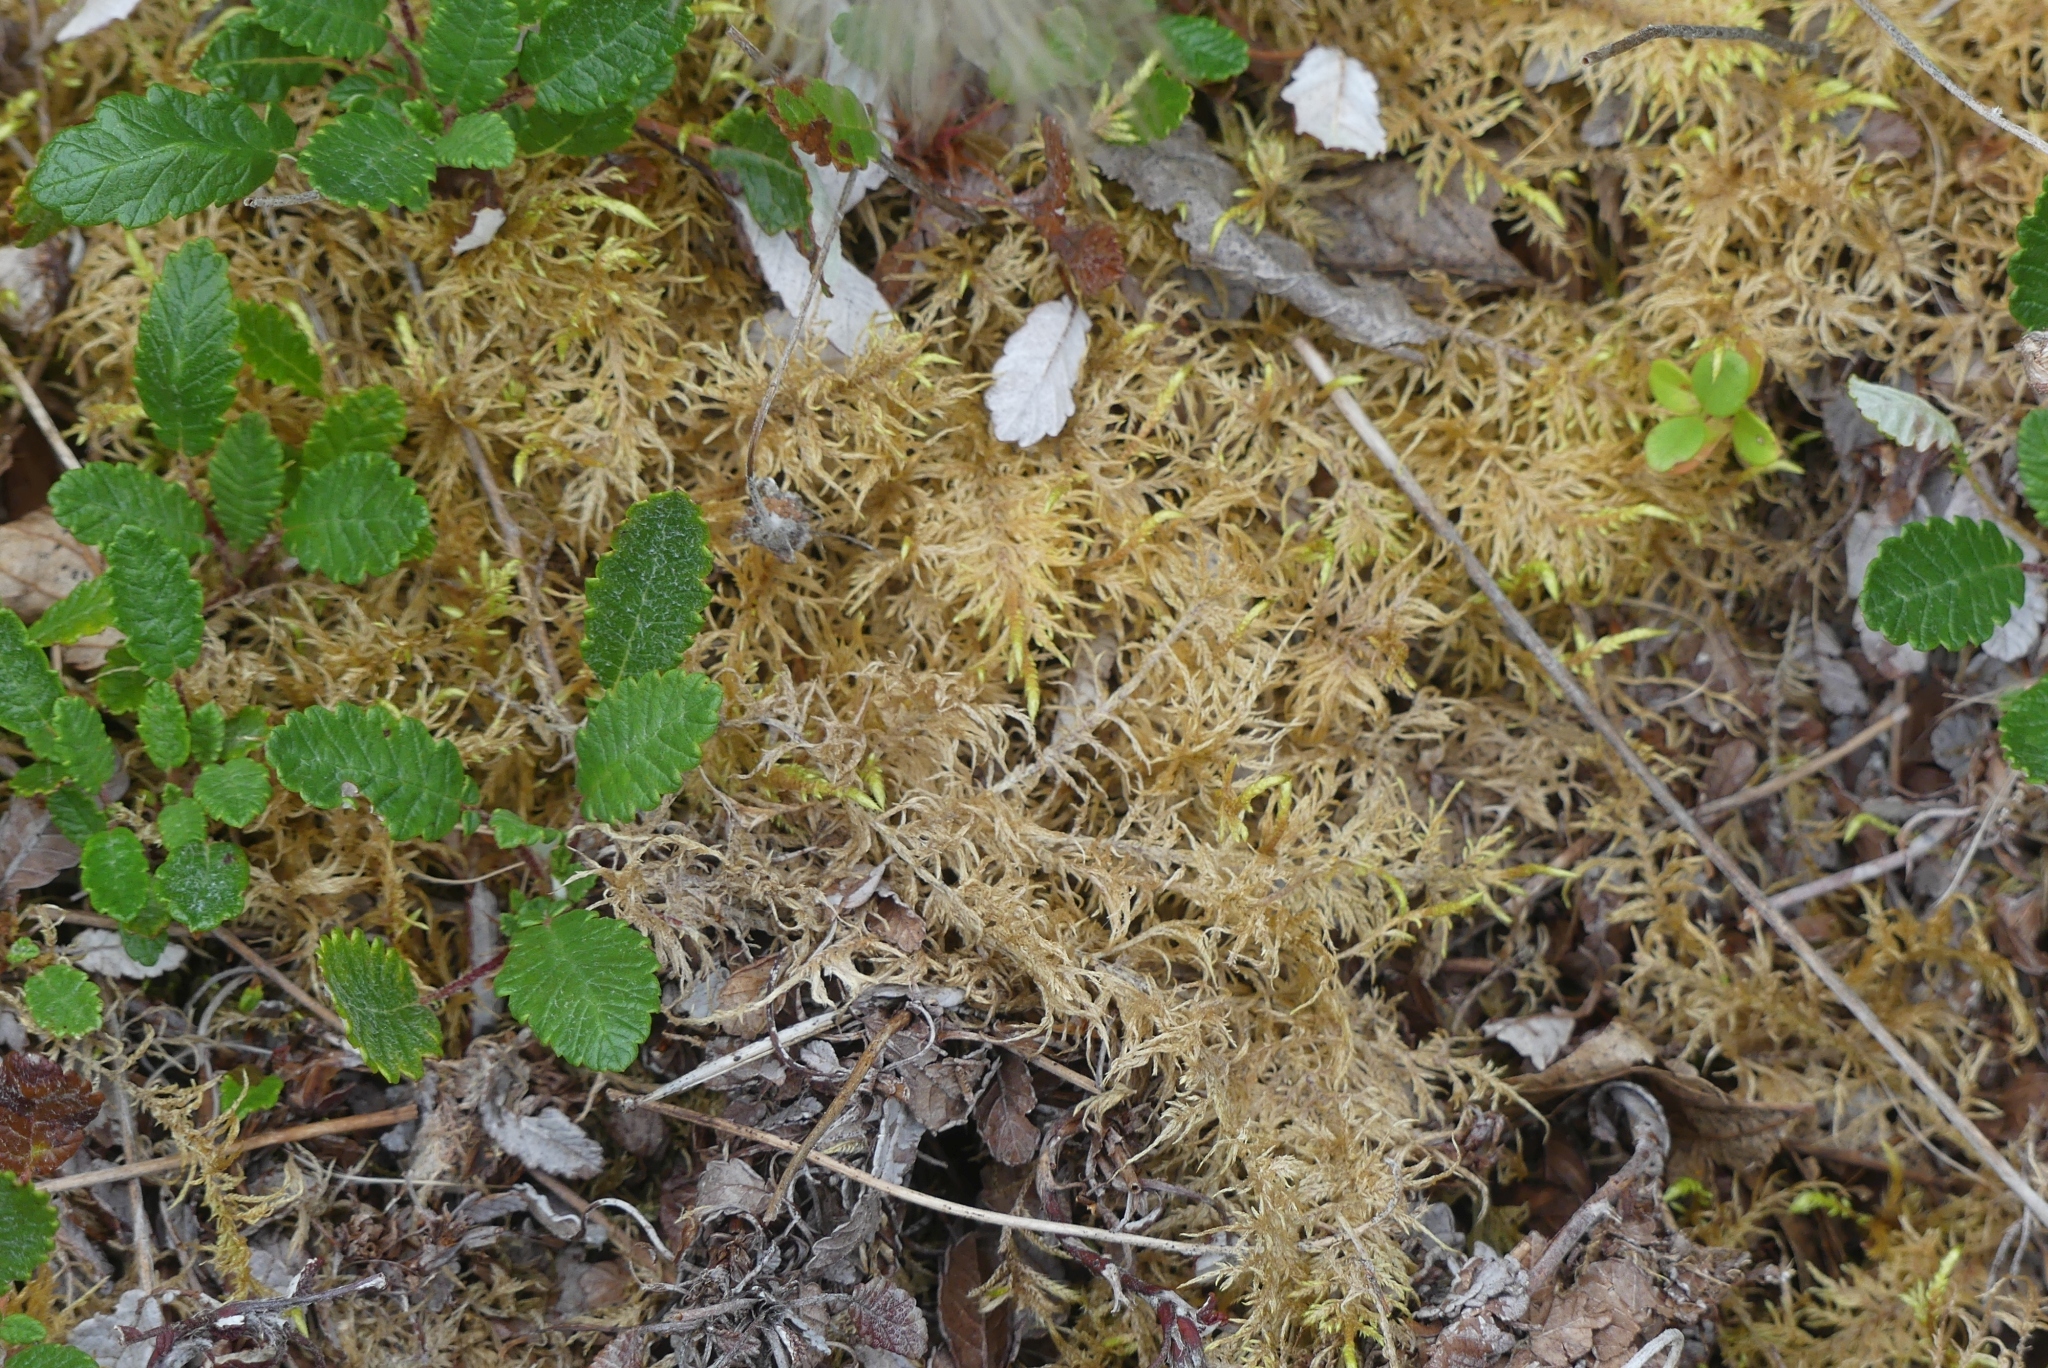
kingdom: Plantae
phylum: Bryophyta
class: Bryopsida
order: Hypnales
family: Hylocomiaceae
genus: Hylocomium
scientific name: Hylocomium splendens
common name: Stairstep moss
